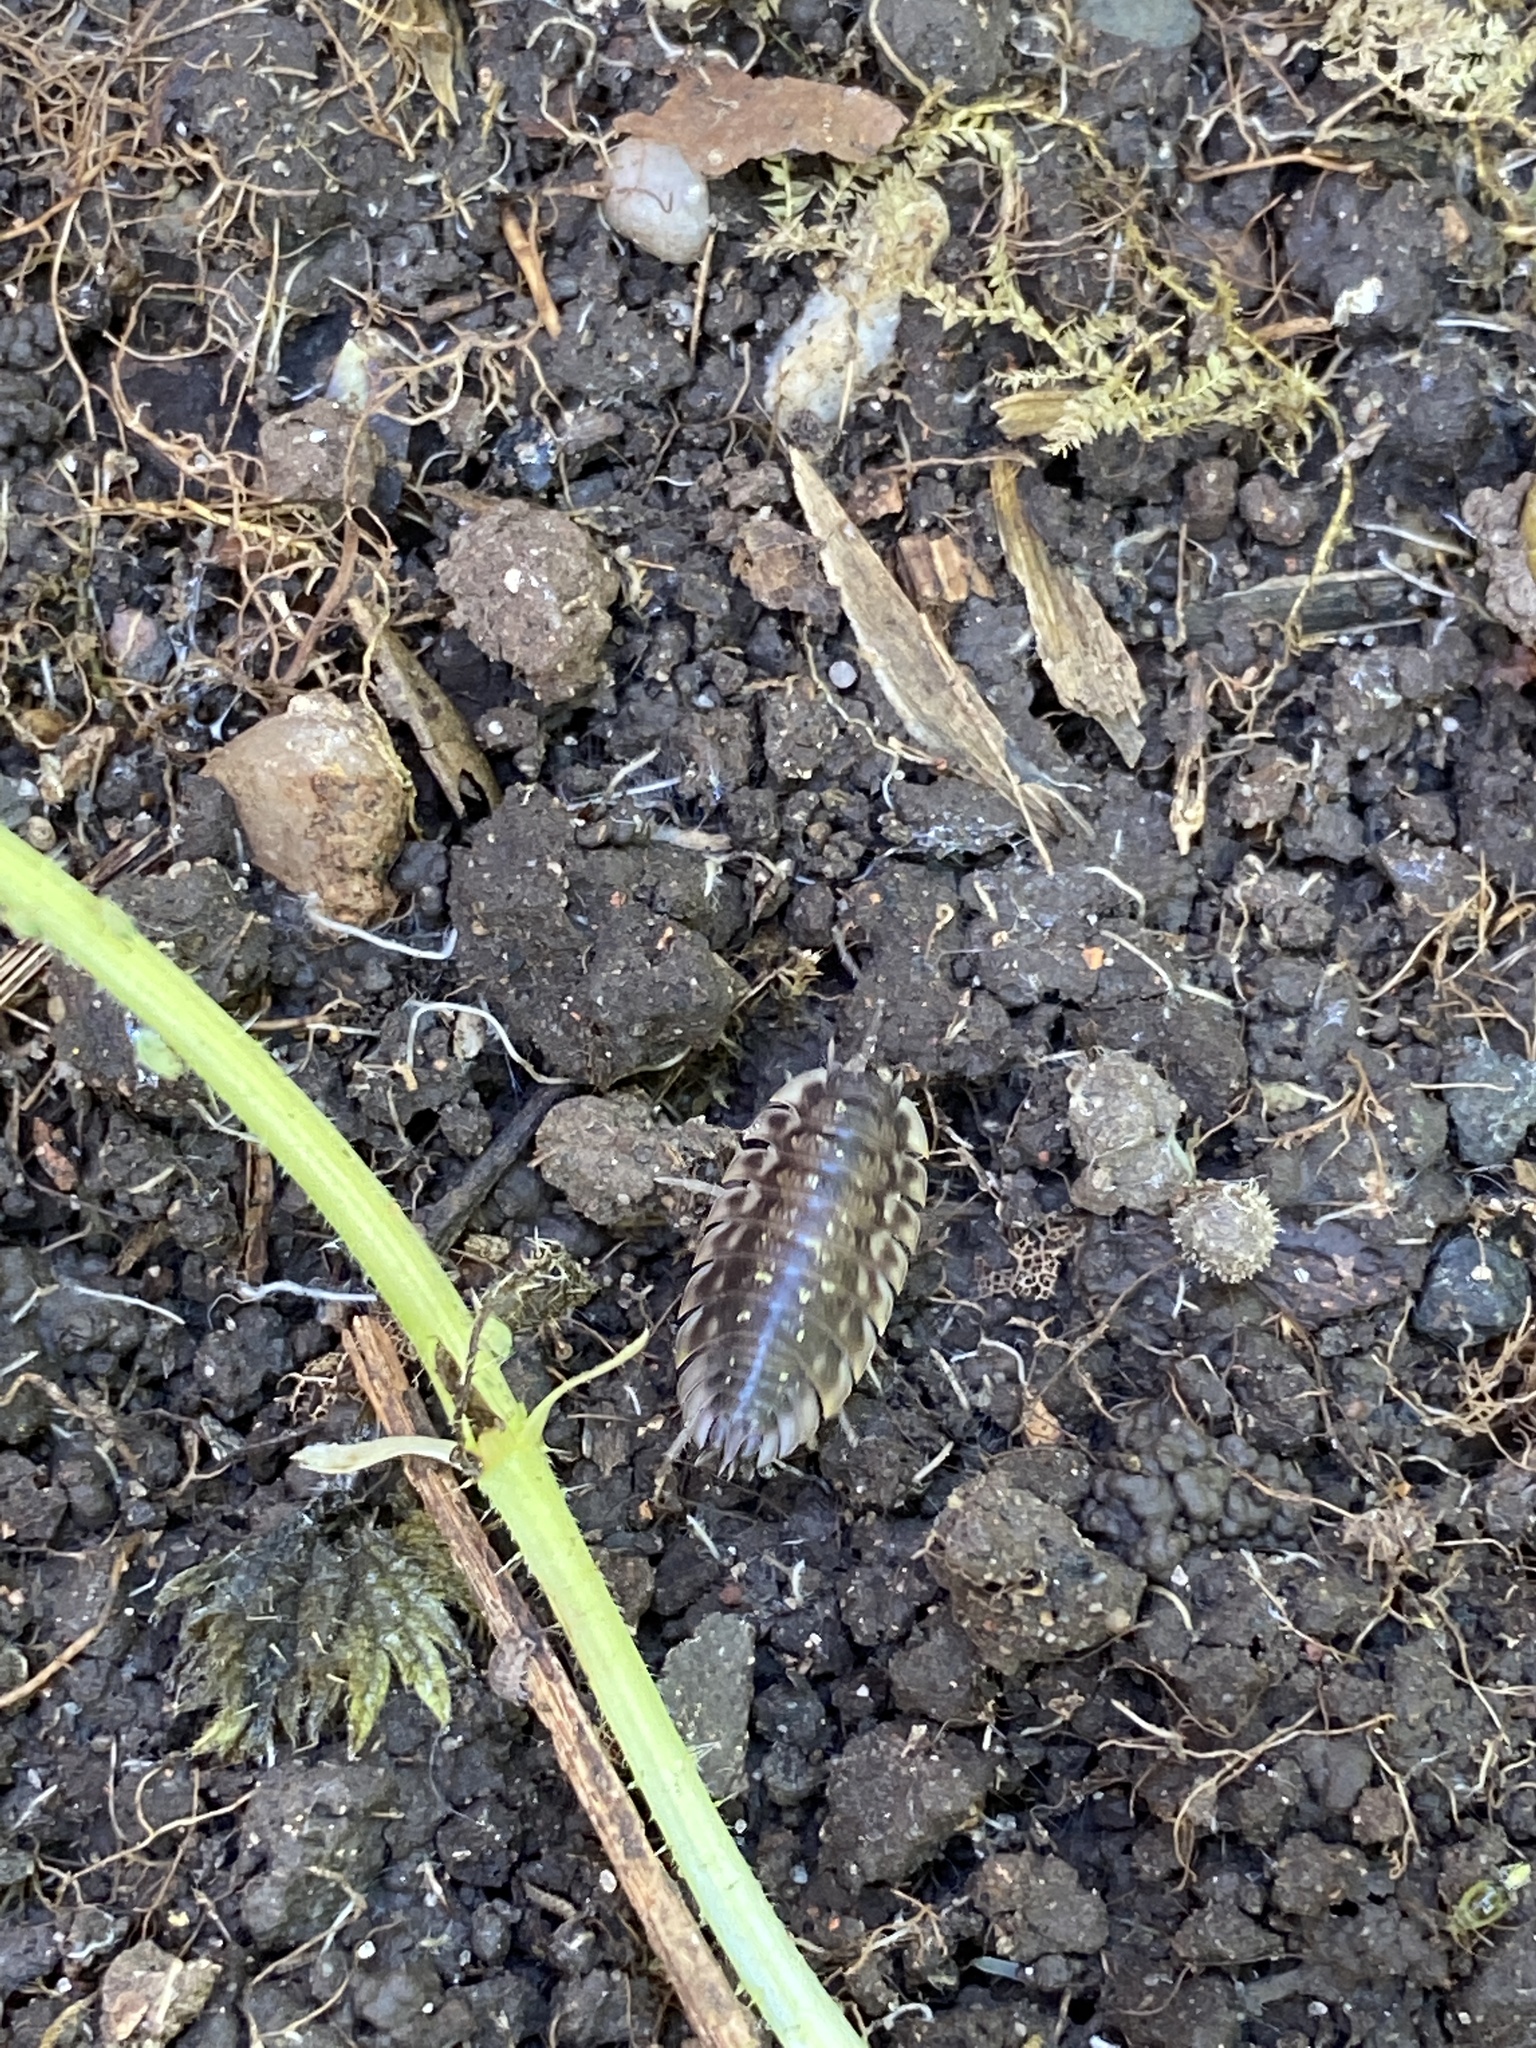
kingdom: Animalia
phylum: Arthropoda
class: Malacostraca
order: Isopoda
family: Oniscidae
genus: Oniscus
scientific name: Oniscus asellus
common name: Common shiny woodlouse
